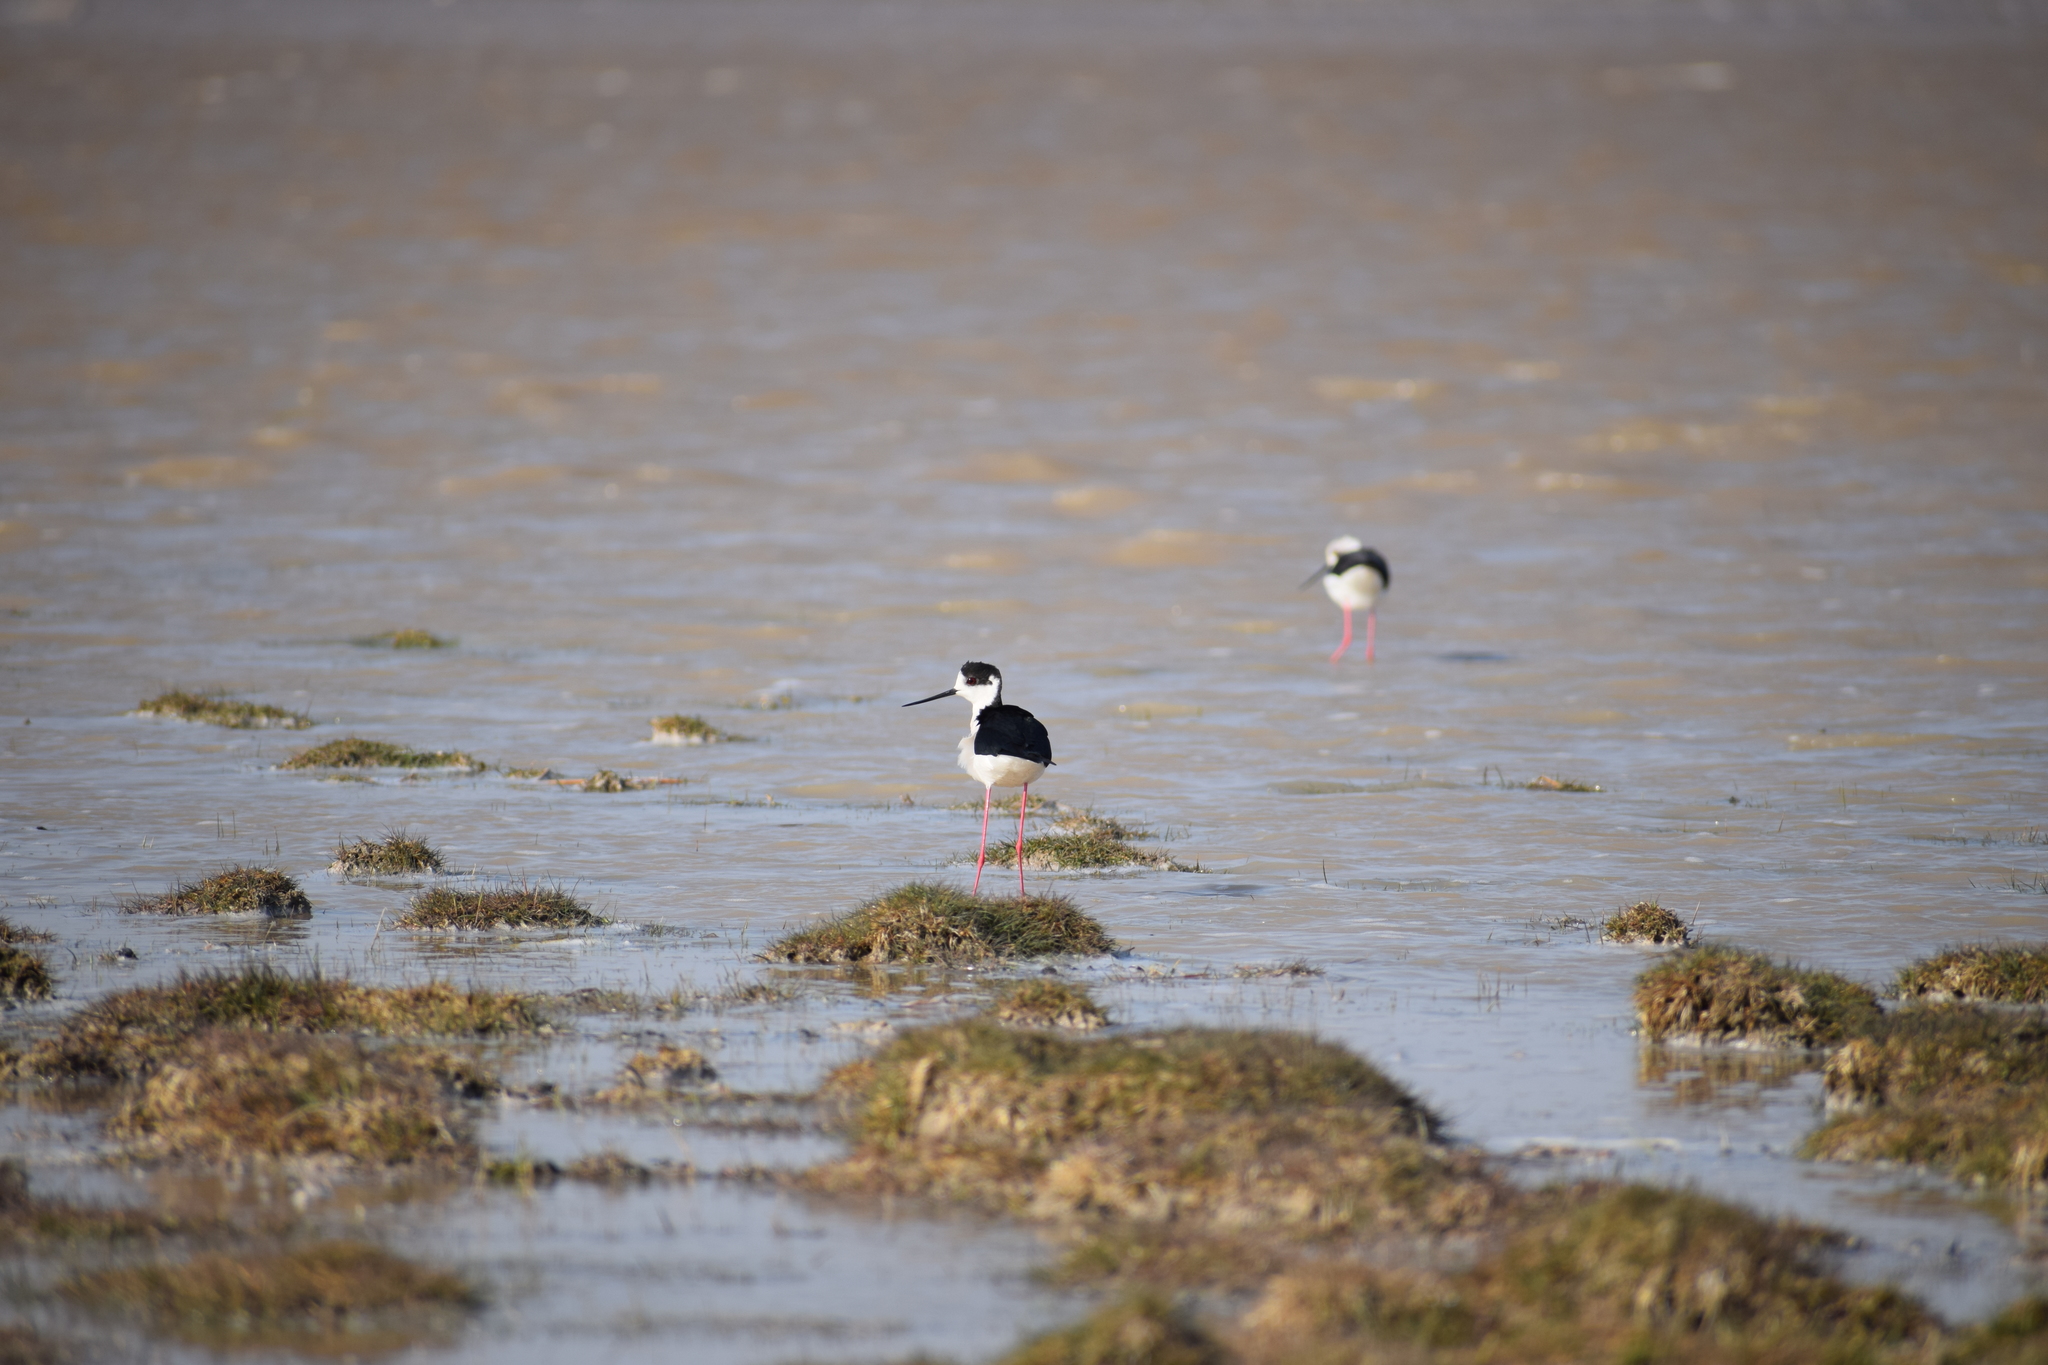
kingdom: Animalia
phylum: Chordata
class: Aves
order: Charadriiformes
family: Recurvirostridae
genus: Himantopus
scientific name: Himantopus himantopus
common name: Black-winged stilt
